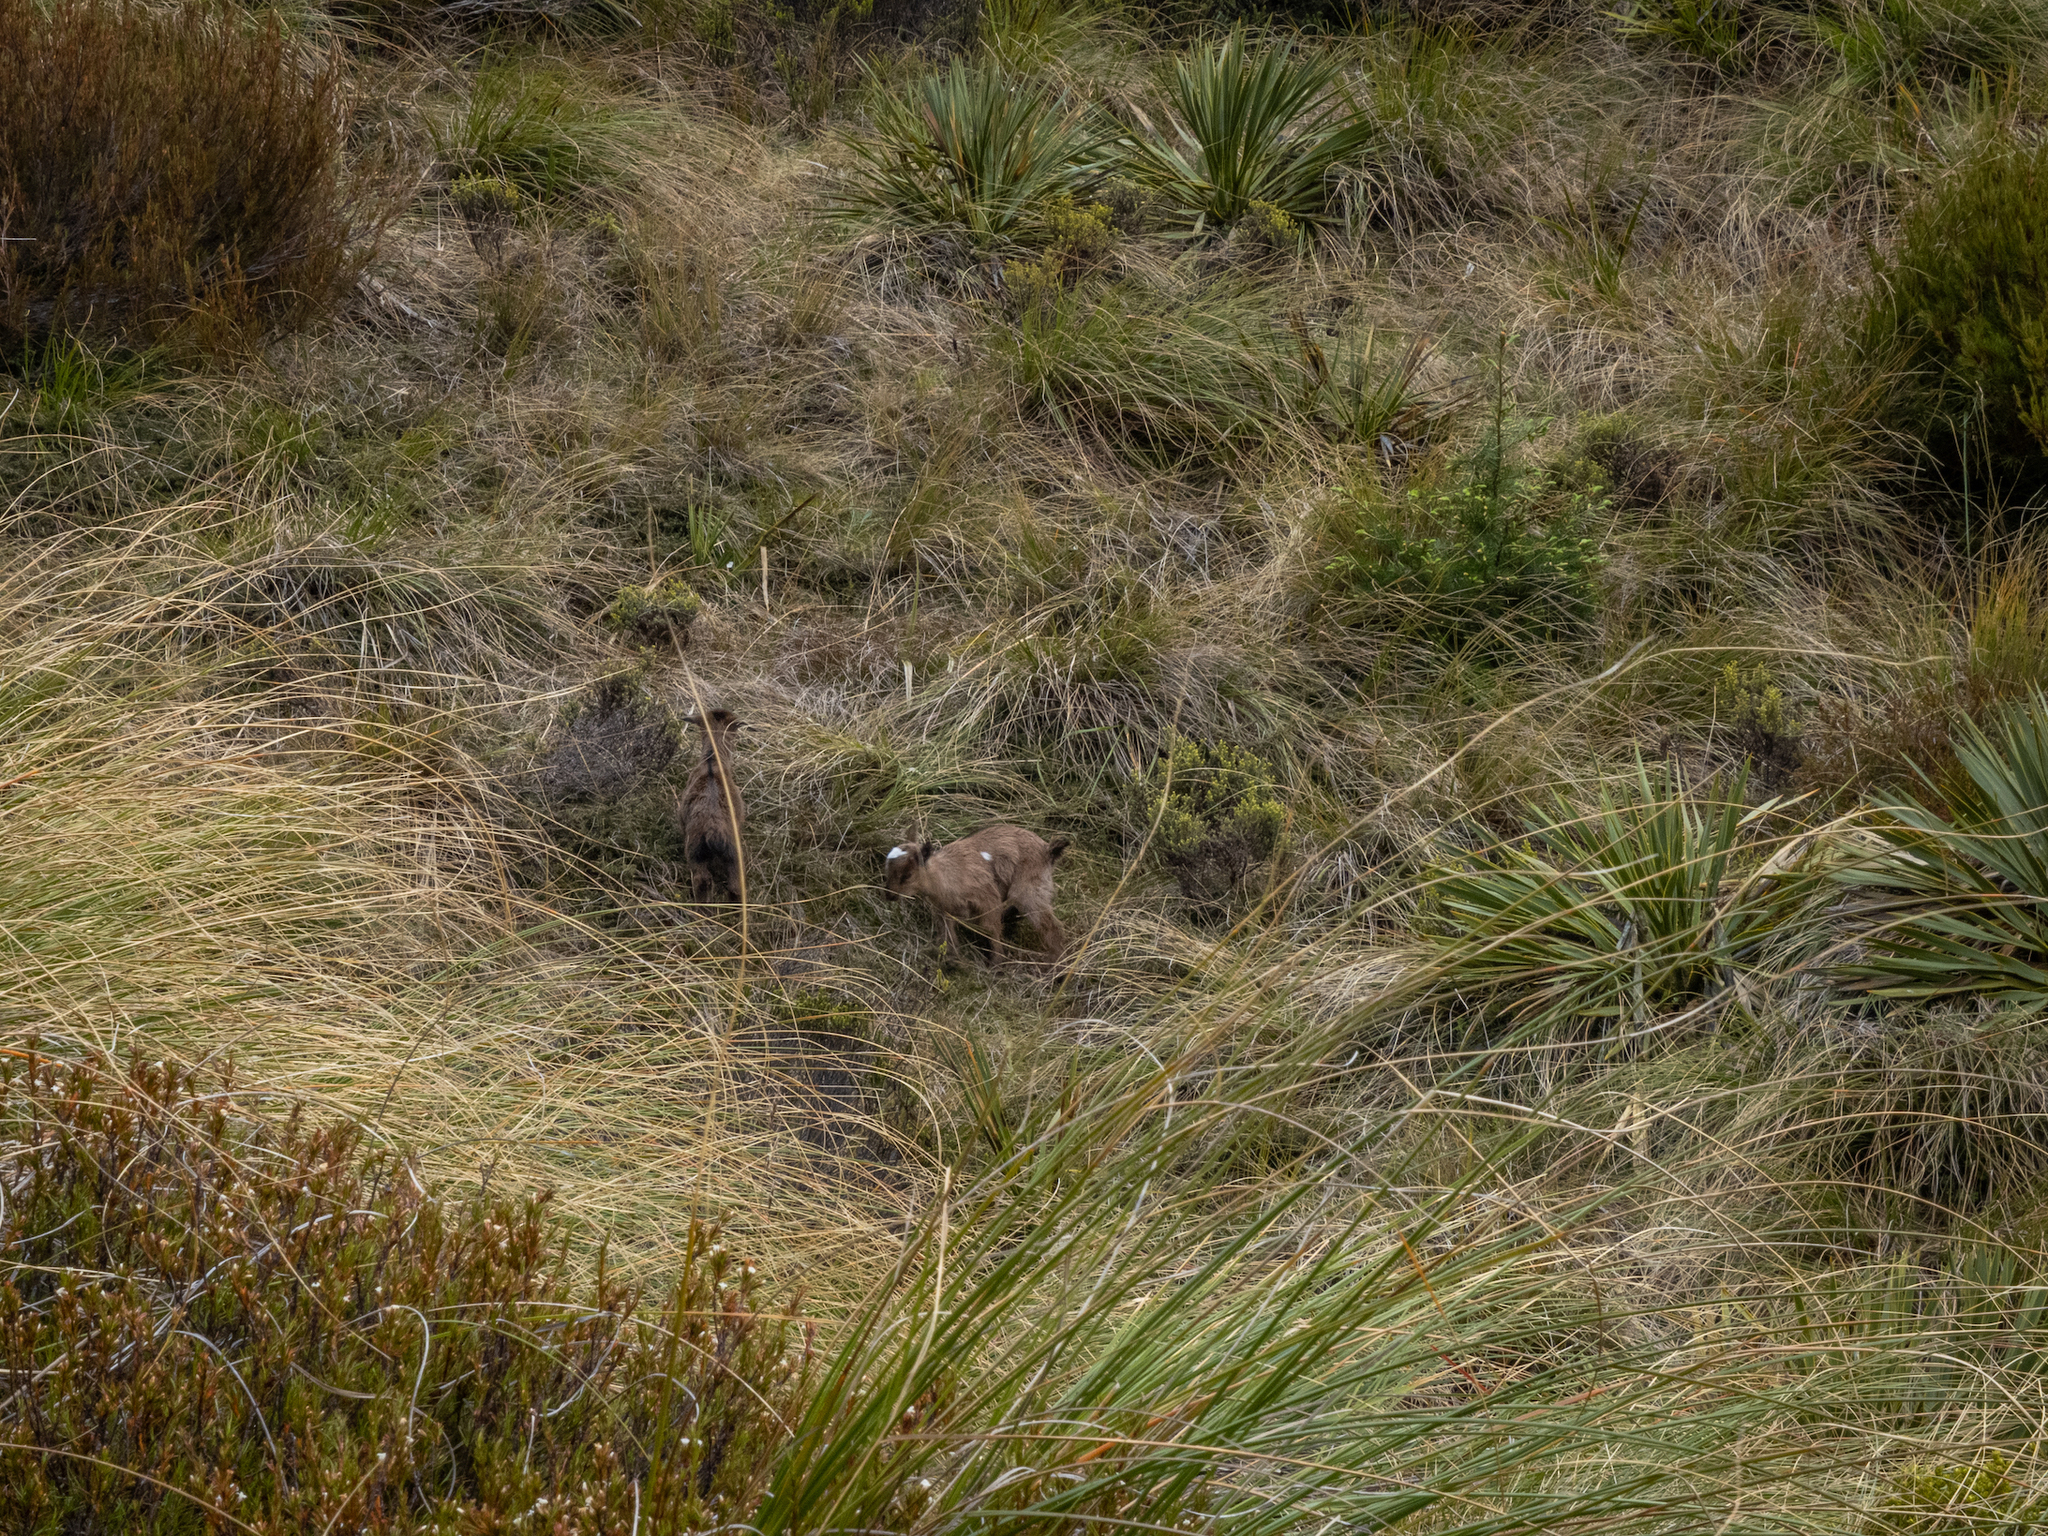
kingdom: Animalia
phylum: Chordata
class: Mammalia
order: Artiodactyla
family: Bovidae
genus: Capra
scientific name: Capra hircus
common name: Domestic goat
